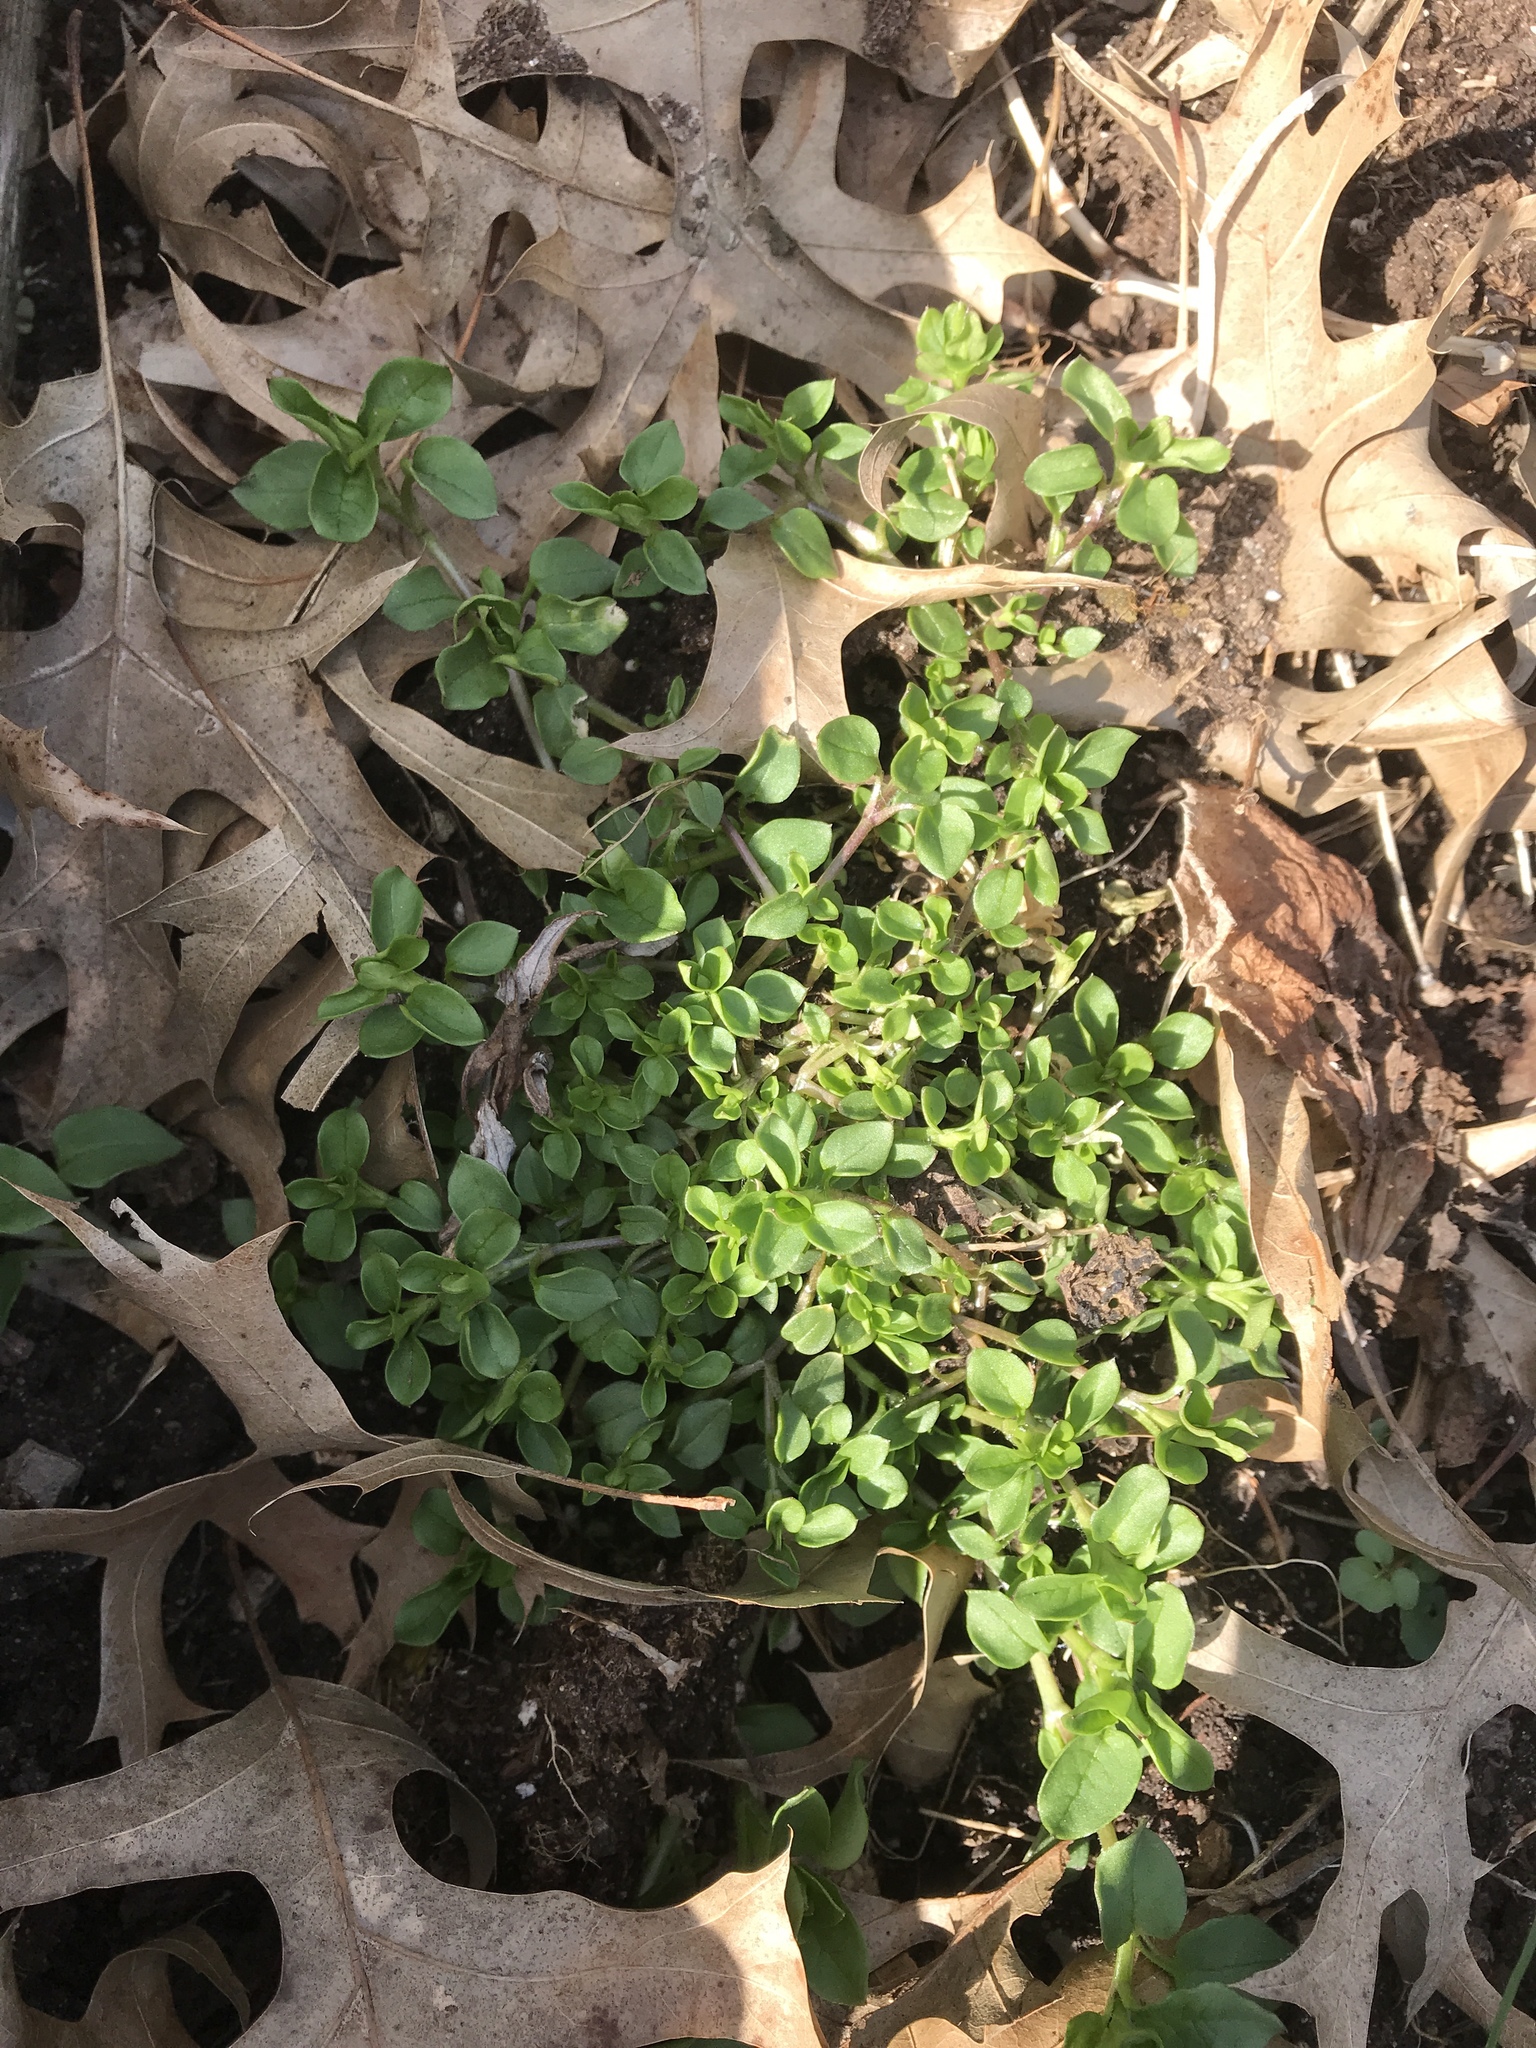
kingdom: Plantae
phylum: Tracheophyta
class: Magnoliopsida
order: Caryophyllales
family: Caryophyllaceae
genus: Stellaria
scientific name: Stellaria media
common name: Common chickweed
